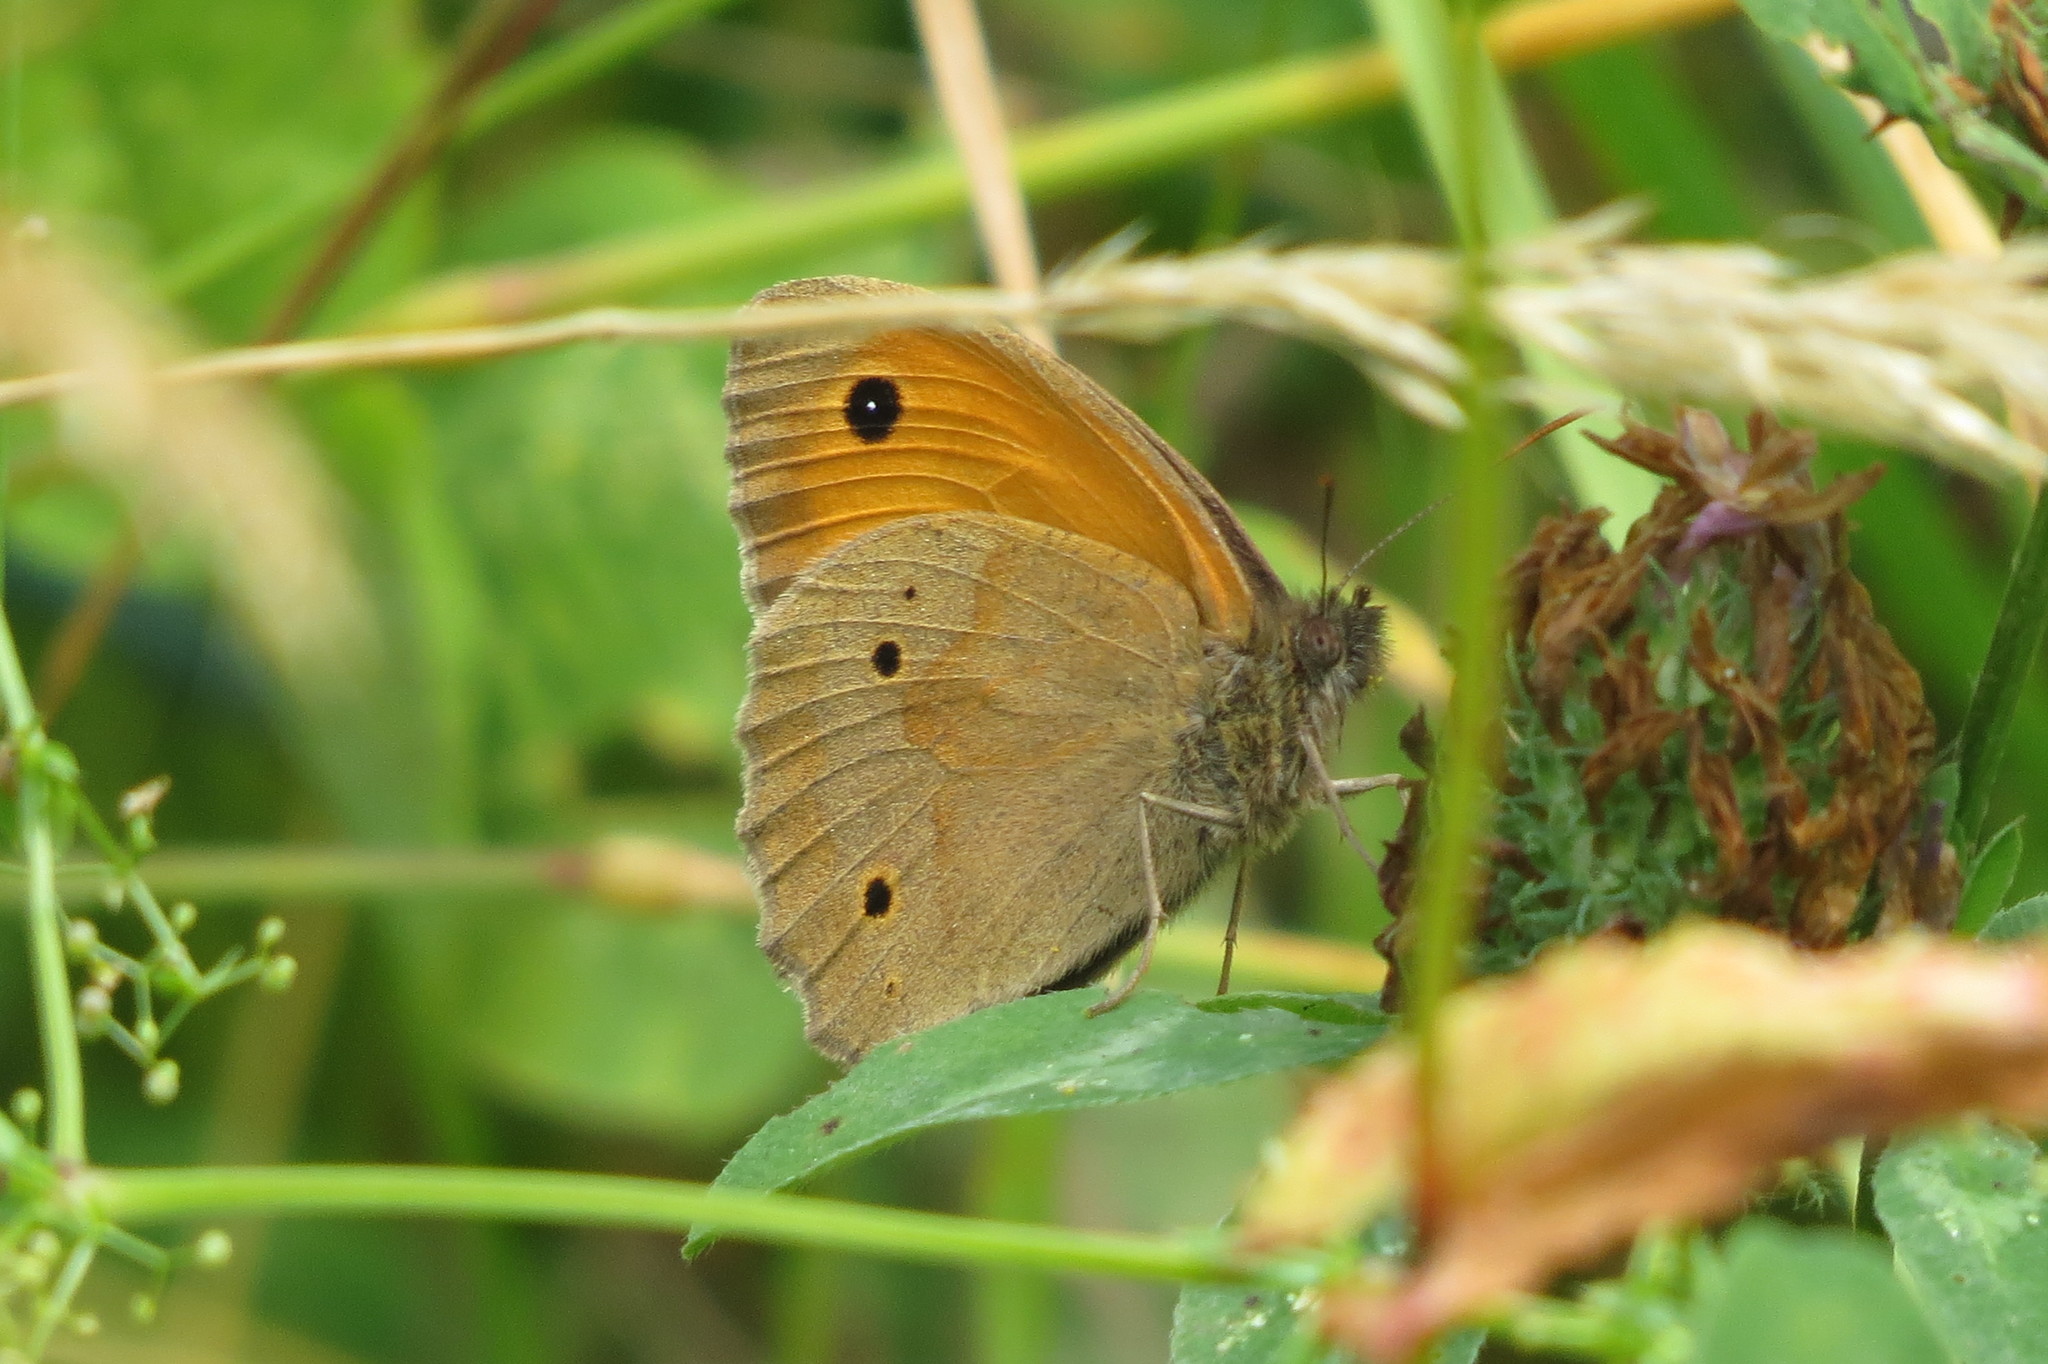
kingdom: Animalia
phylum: Arthropoda
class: Insecta
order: Lepidoptera
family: Nymphalidae
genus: Maniola
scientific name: Maniola jurtina
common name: Meadow brown
